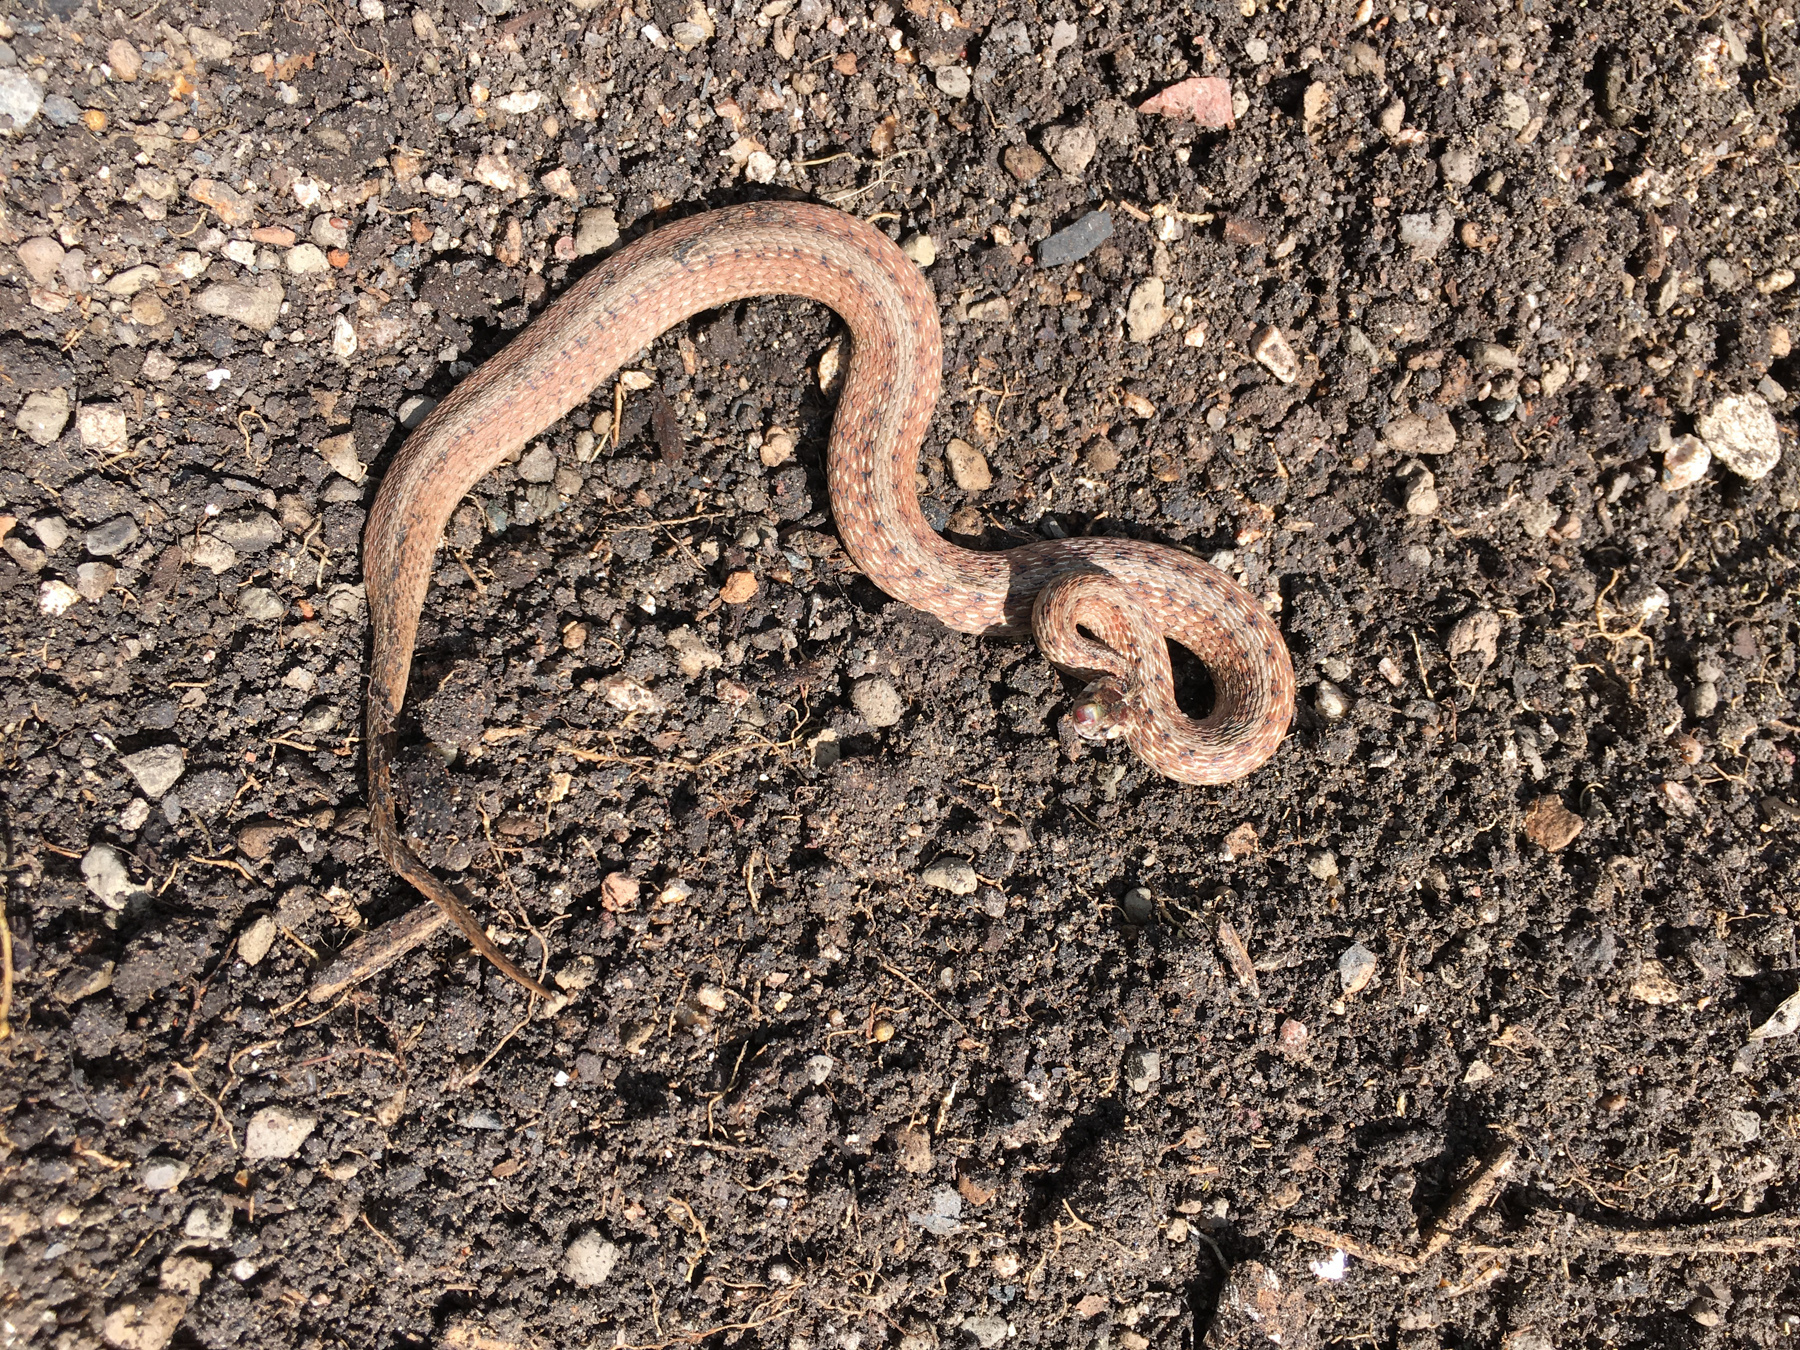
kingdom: Animalia
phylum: Chordata
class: Squamata
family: Colubridae
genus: Storeria
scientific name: Storeria dekayi
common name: (dekay’s) brown snake
